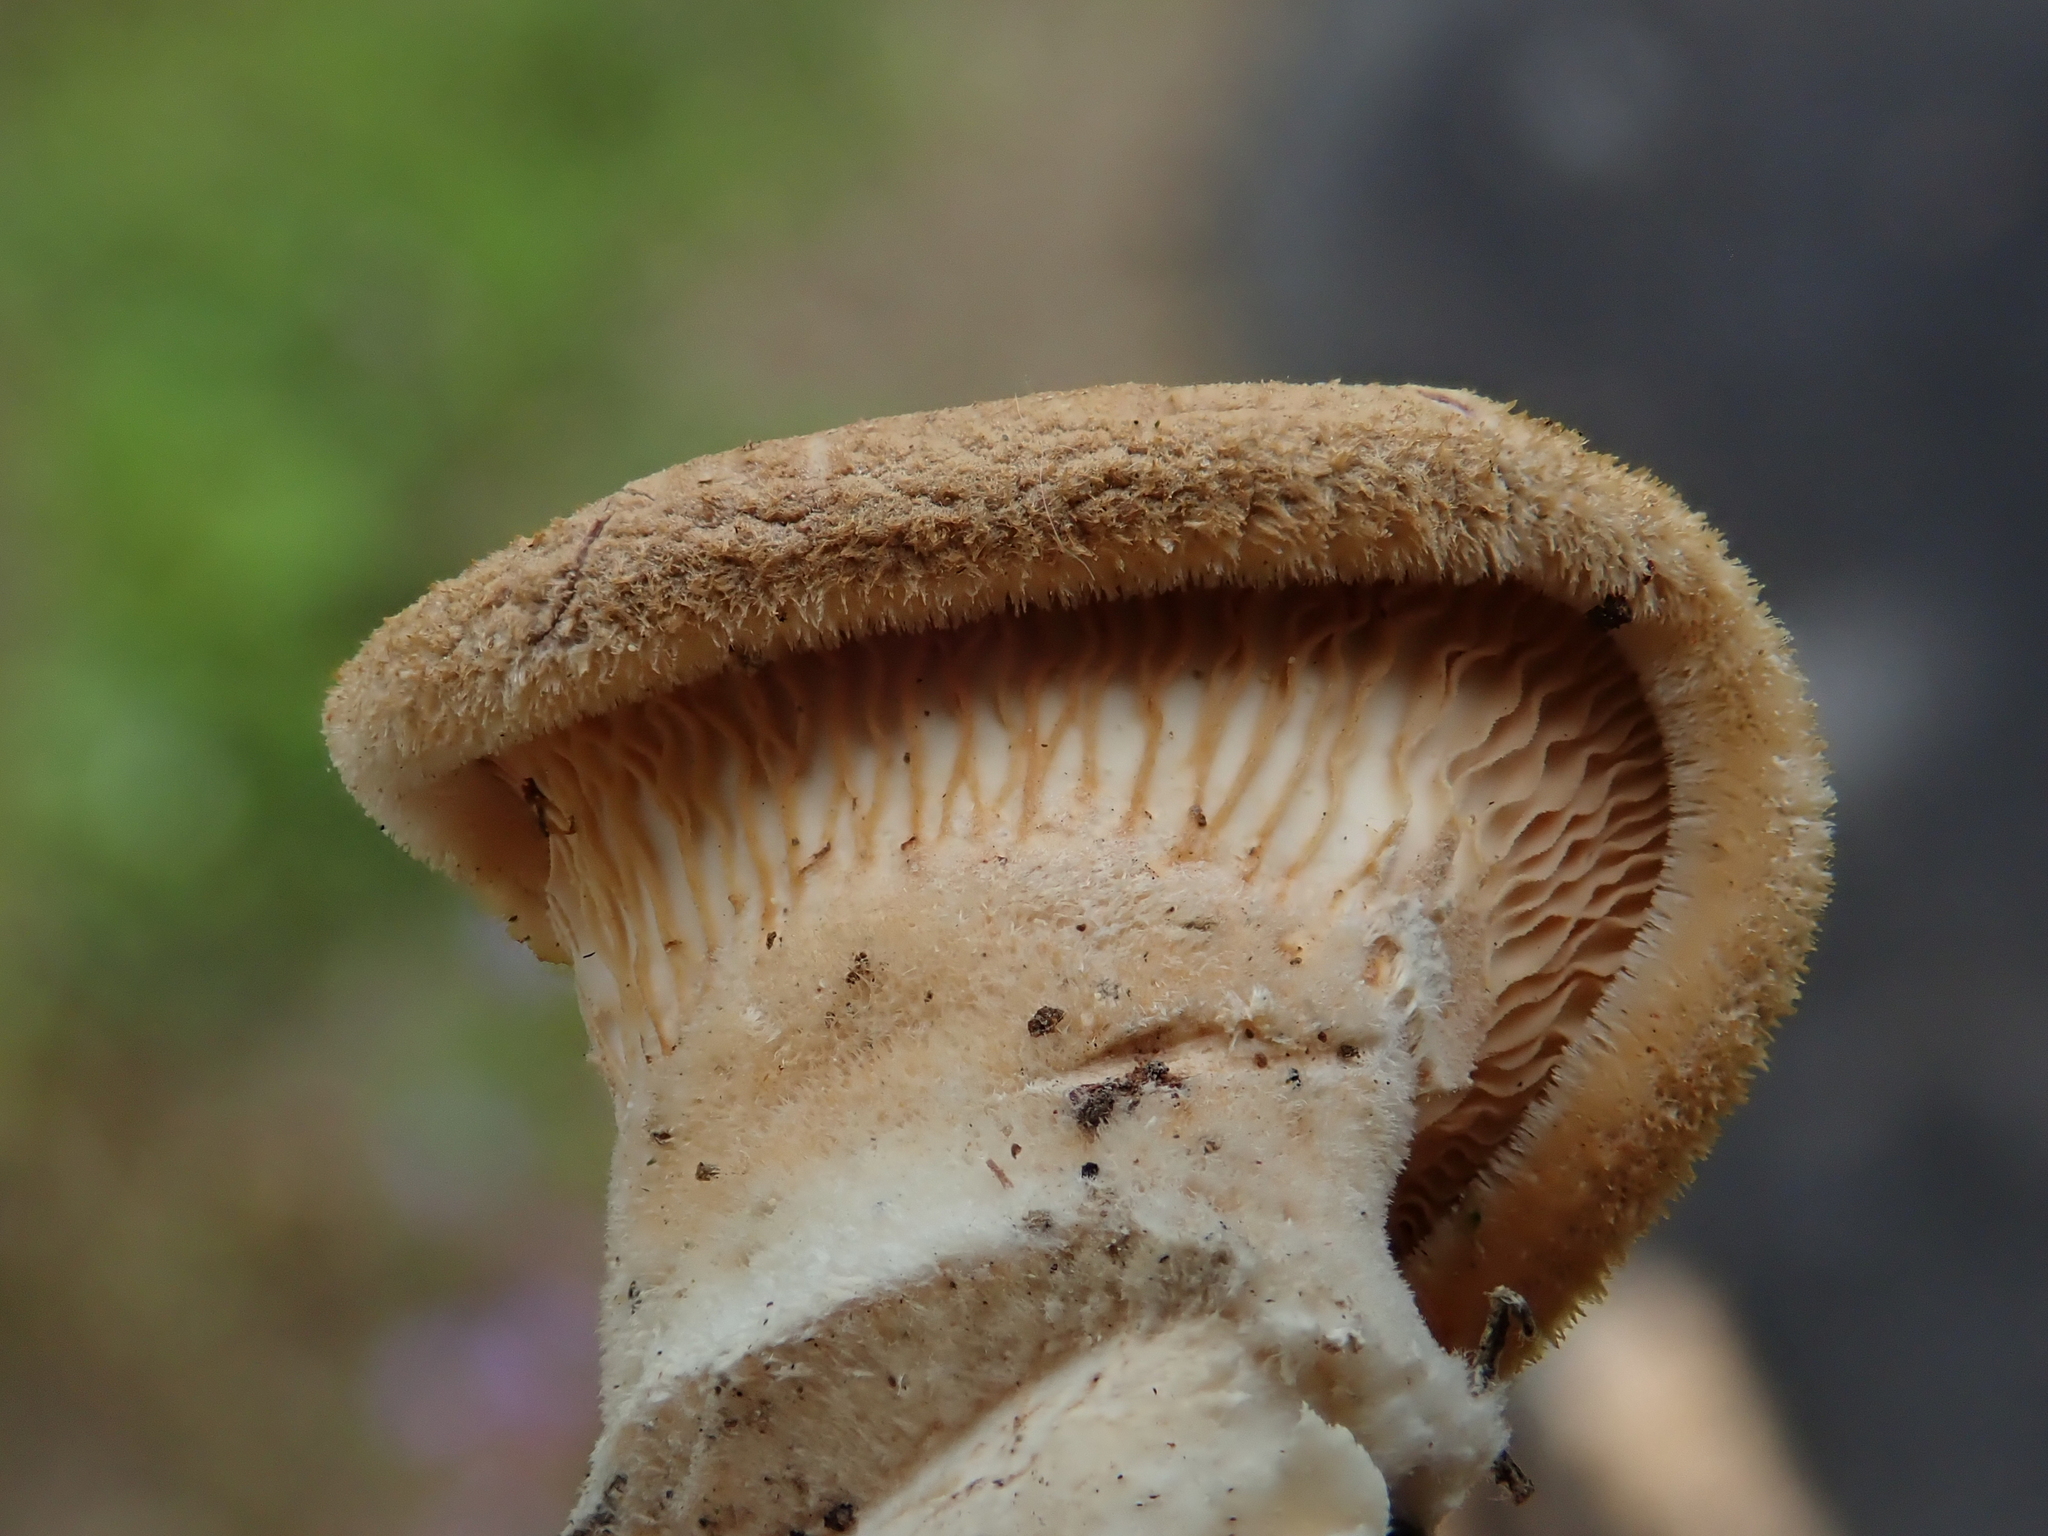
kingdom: Fungi
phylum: Basidiomycota
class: Agaricomycetes
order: Polyporales
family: Panaceae
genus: Panus
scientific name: Panus neostrigosus
